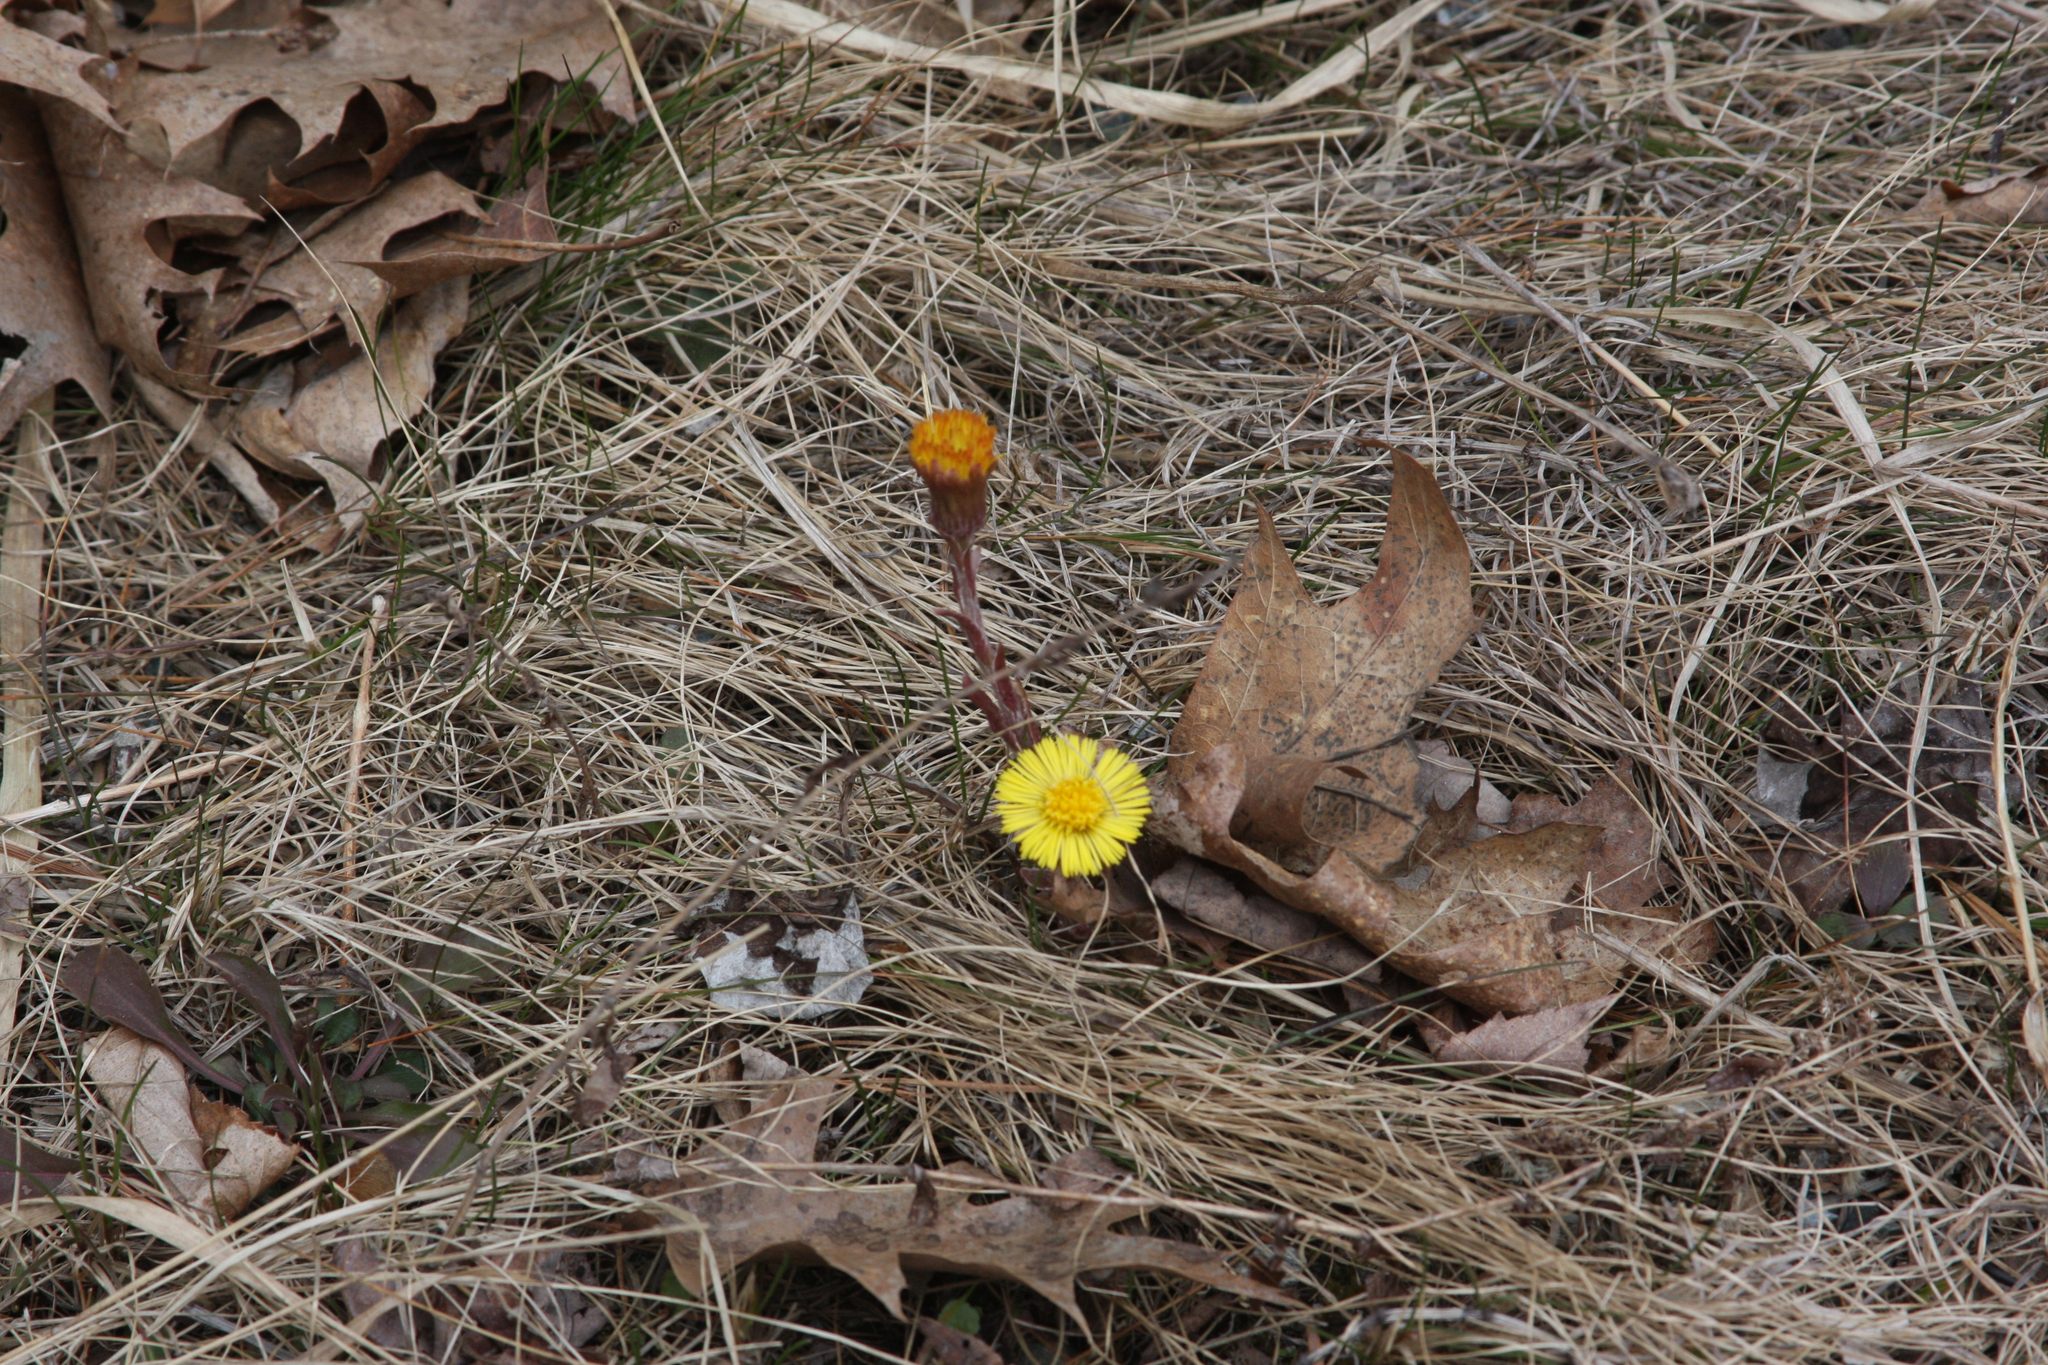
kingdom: Plantae
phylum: Tracheophyta
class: Magnoliopsida
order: Asterales
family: Asteraceae
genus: Tussilago
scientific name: Tussilago farfara
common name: Coltsfoot
